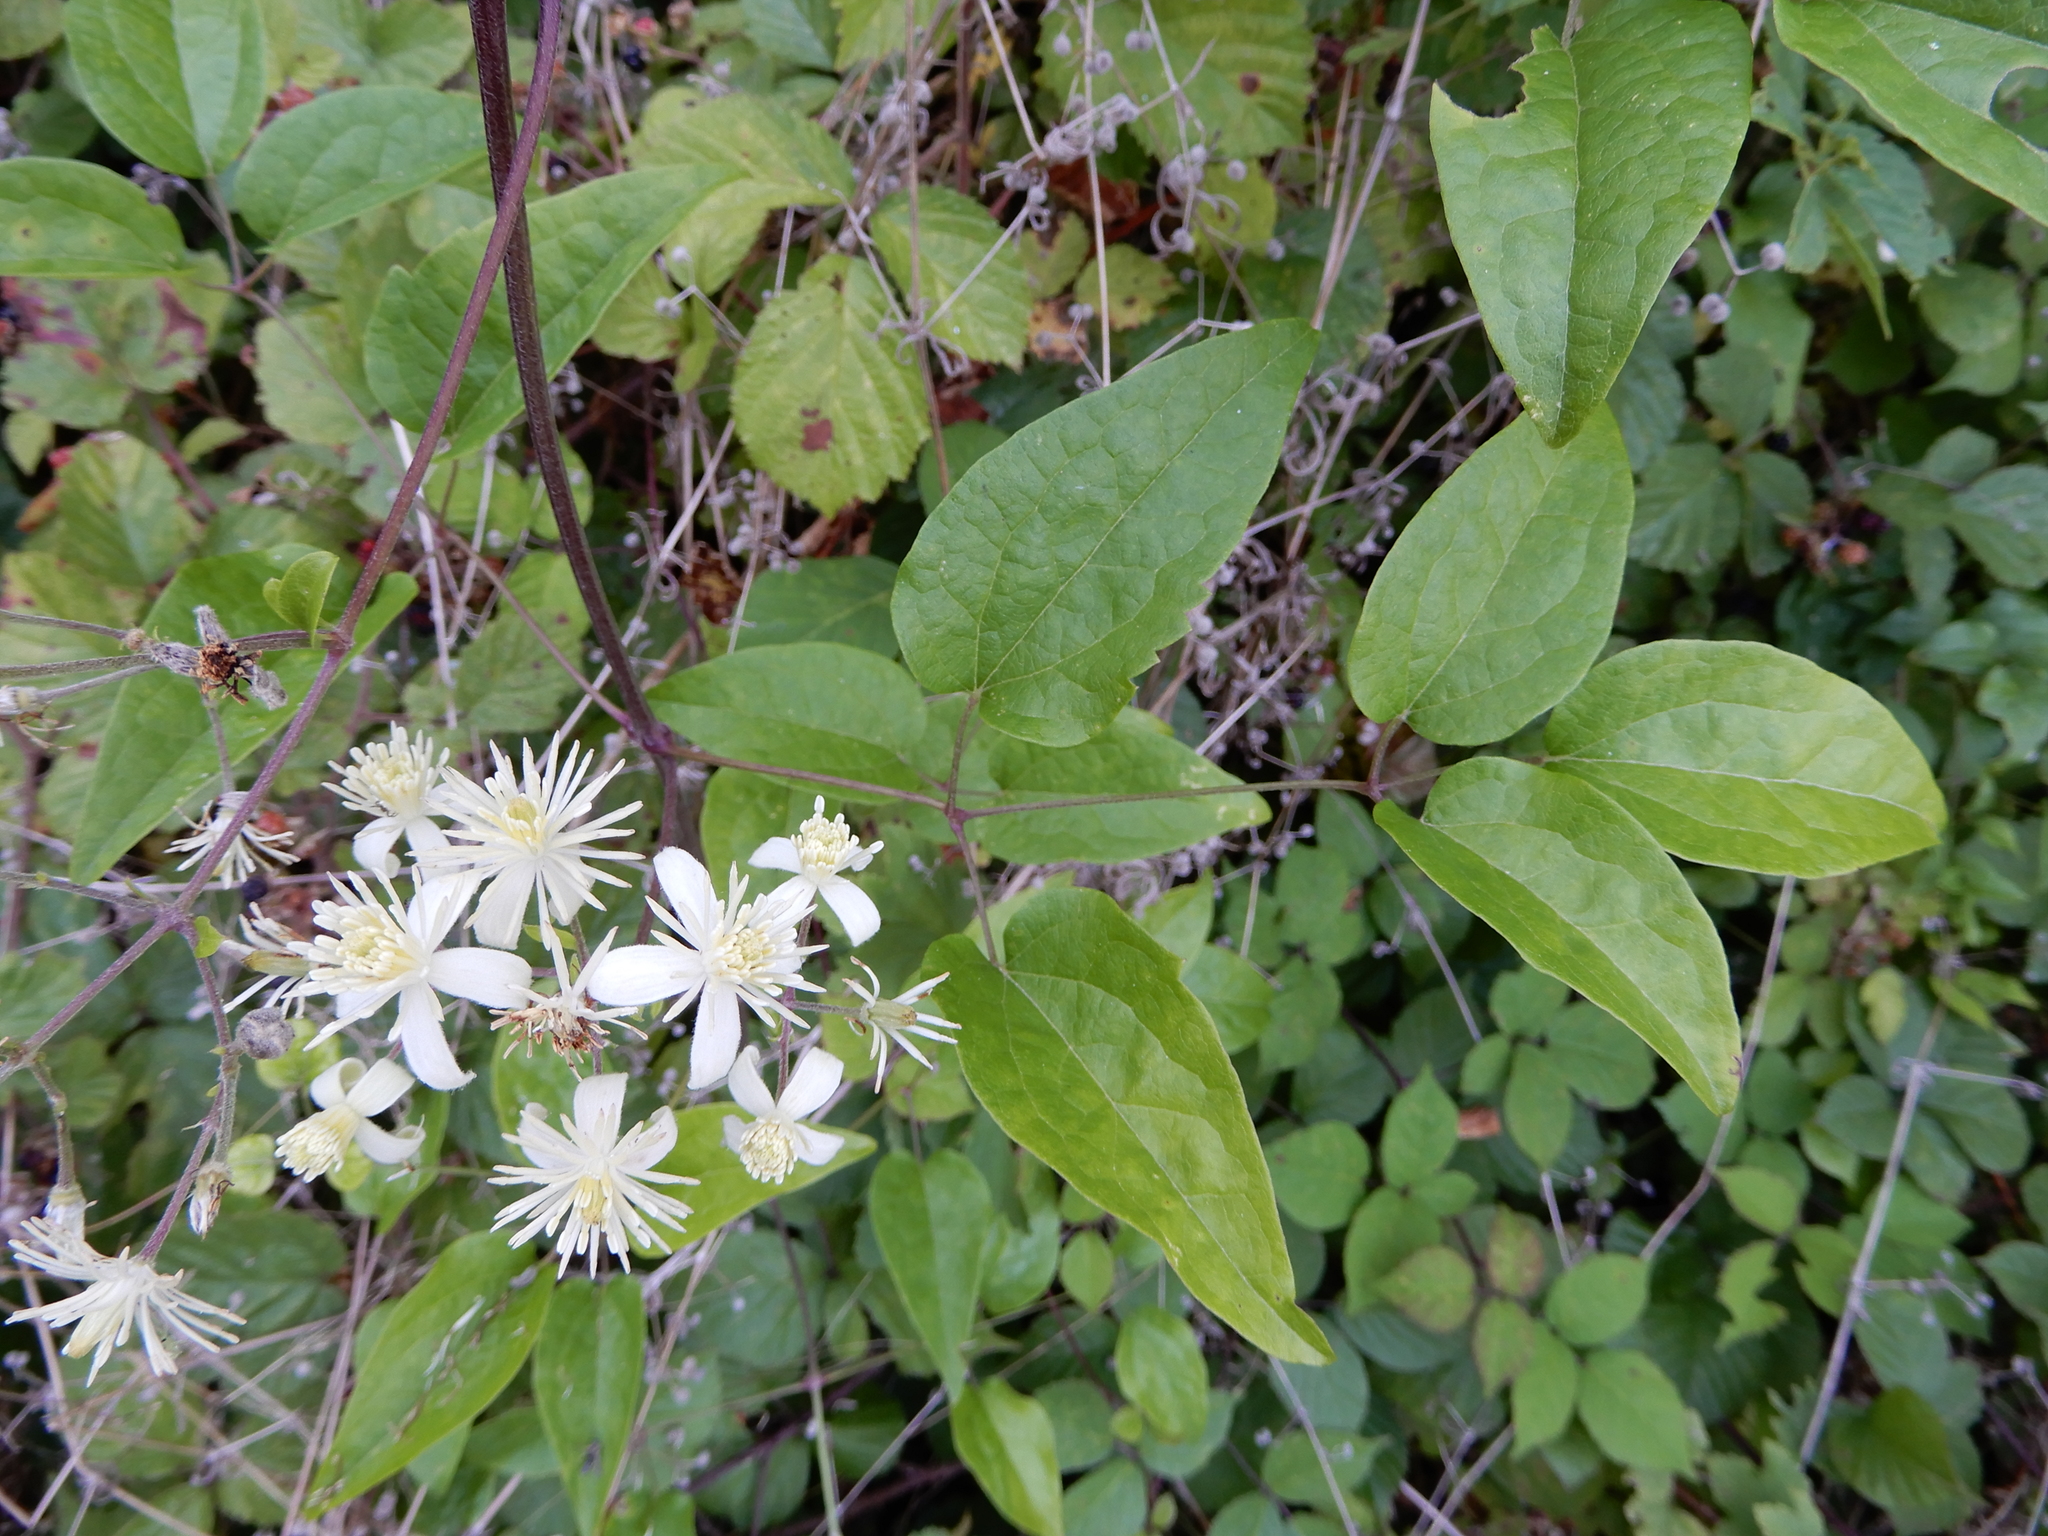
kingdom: Plantae
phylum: Tracheophyta
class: Magnoliopsida
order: Ranunculales
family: Ranunculaceae
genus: Clematis
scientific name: Clematis vitalba
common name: Evergreen clematis
